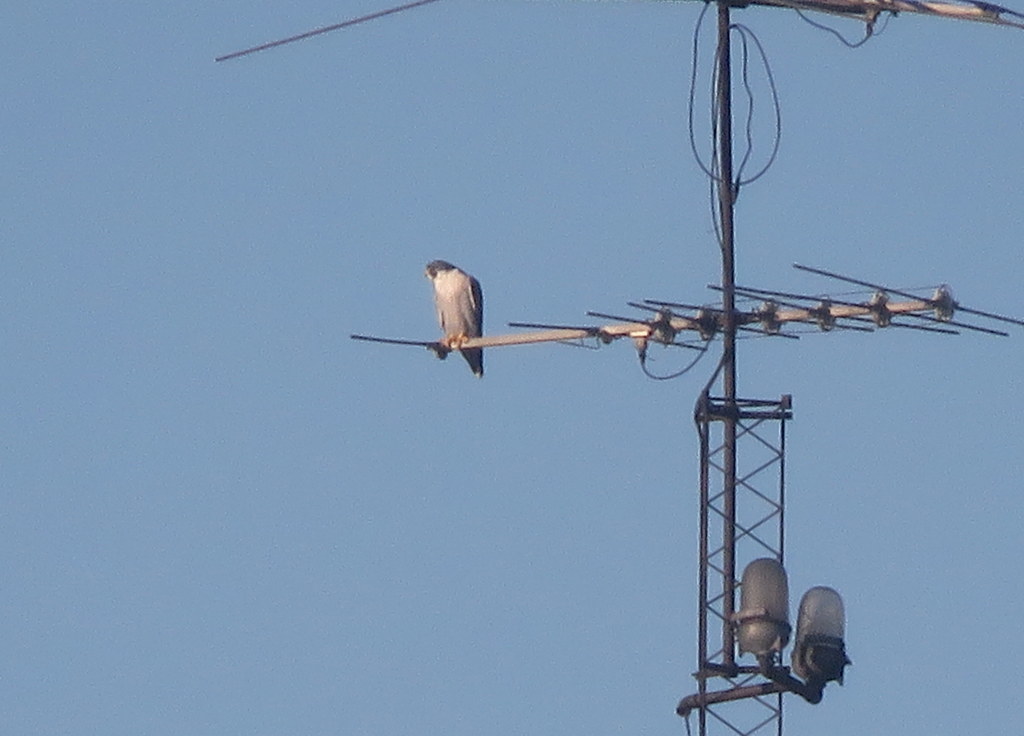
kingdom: Animalia
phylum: Chordata
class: Aves
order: Falconiformes
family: Falconidae
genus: Falco
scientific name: Falco peregrinus
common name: Peregrine falcon
